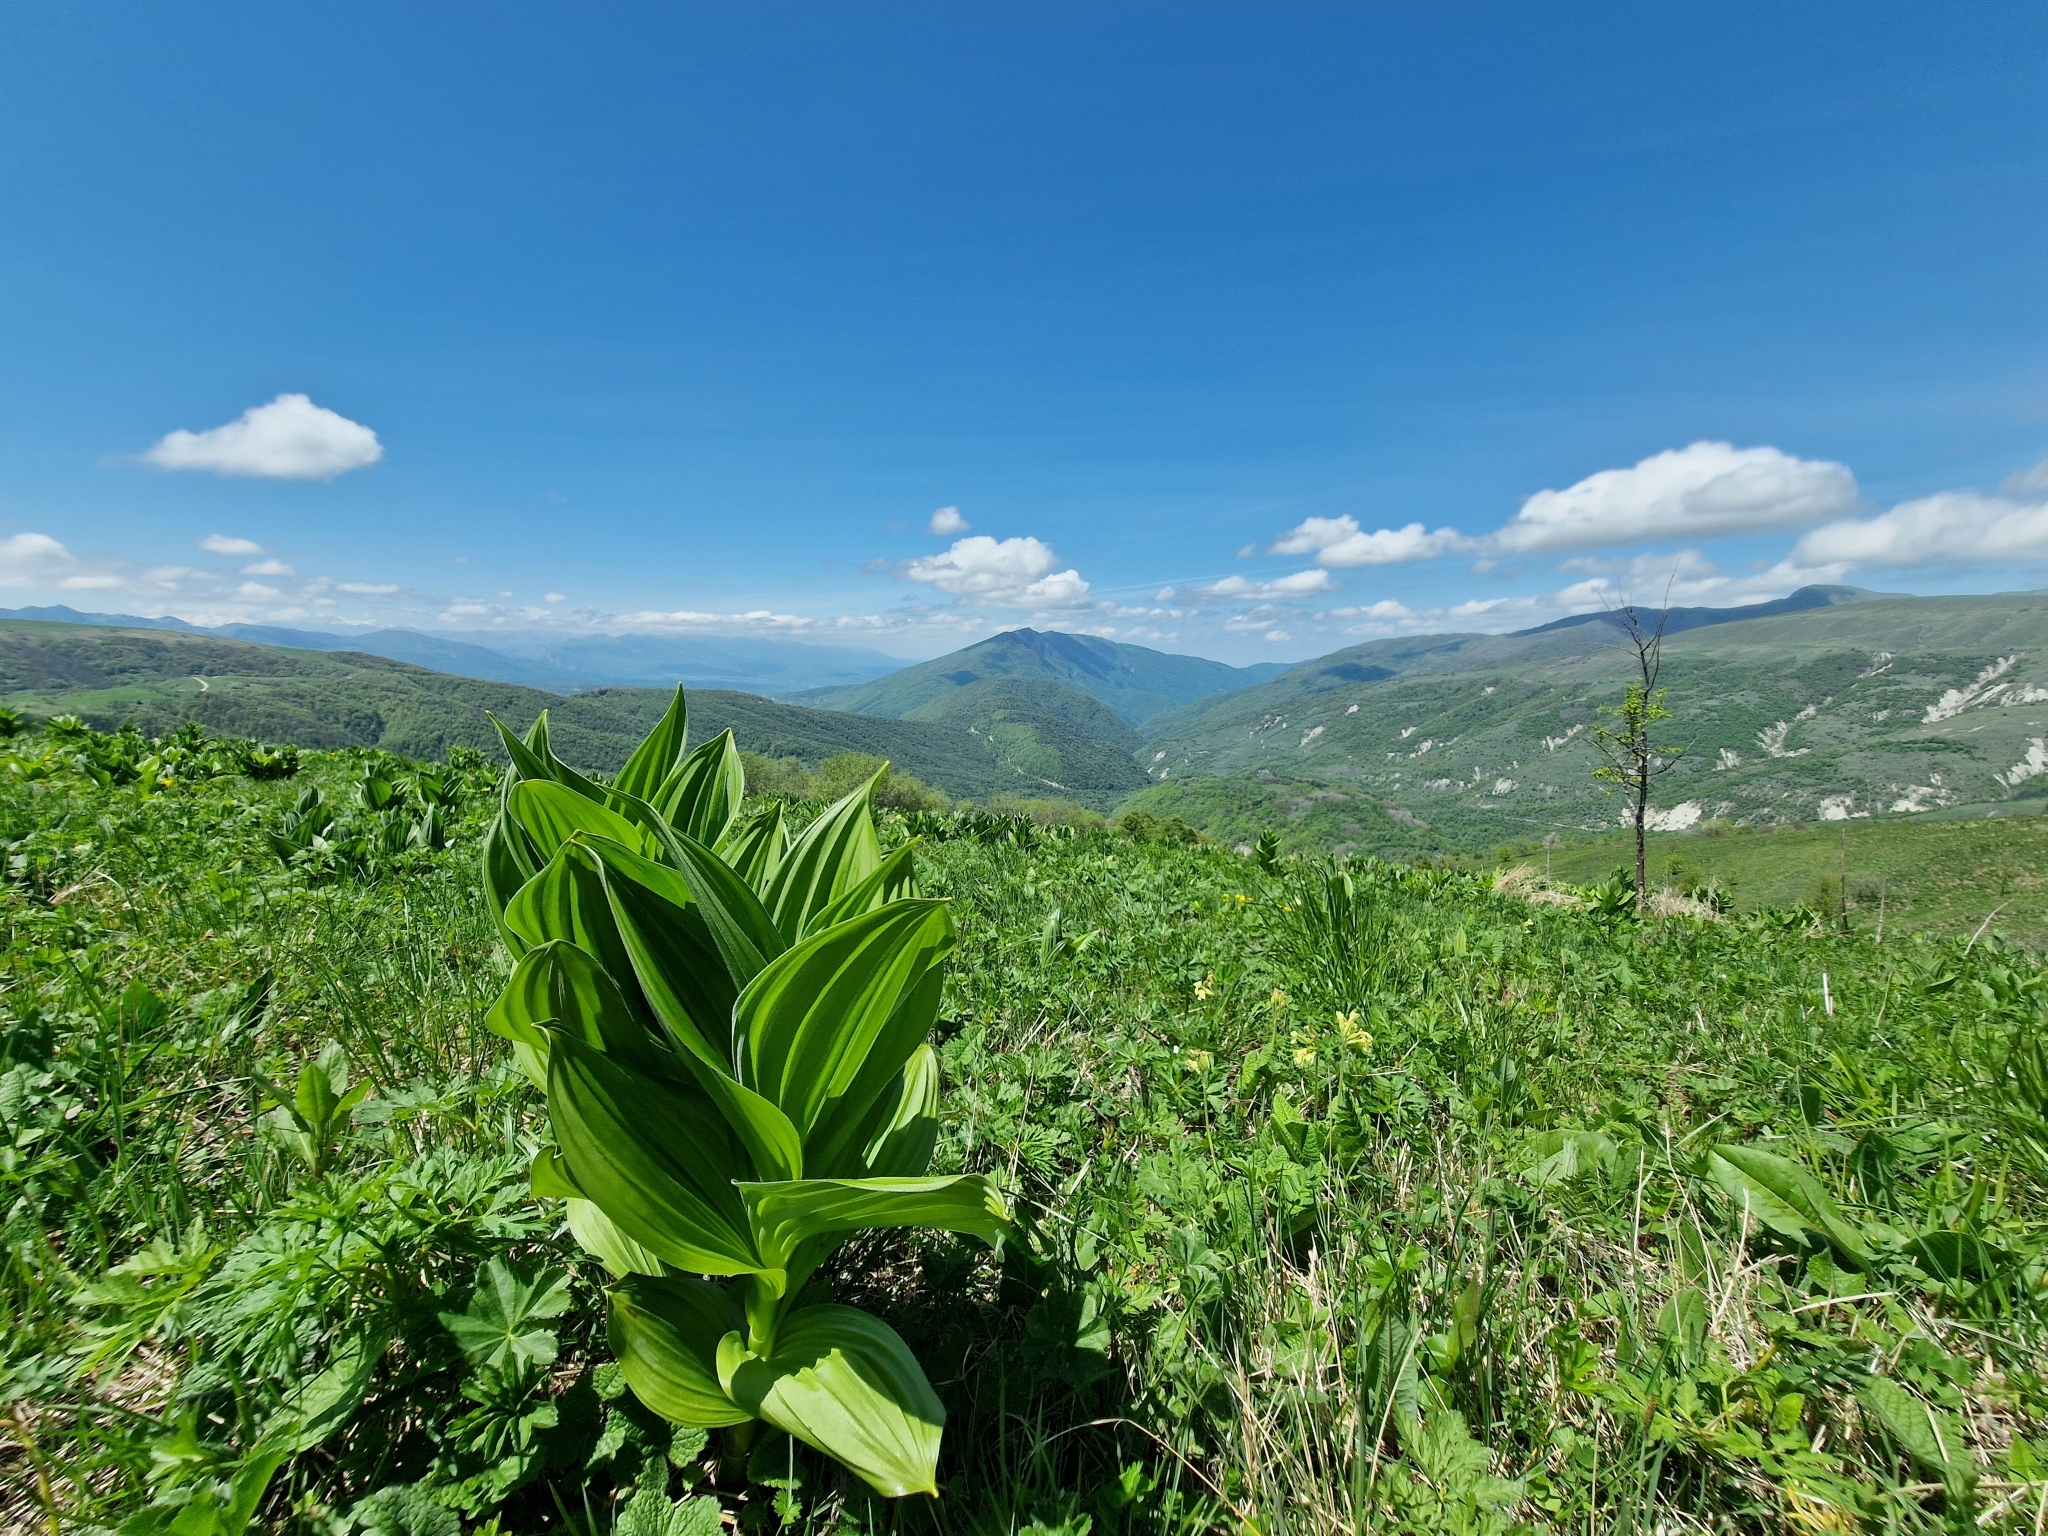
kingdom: Plantae
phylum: Tracheophyta
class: Liliopsida
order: Liliales
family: Melanthiaceae
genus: Veratrum
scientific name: Veratrum lobelianum
